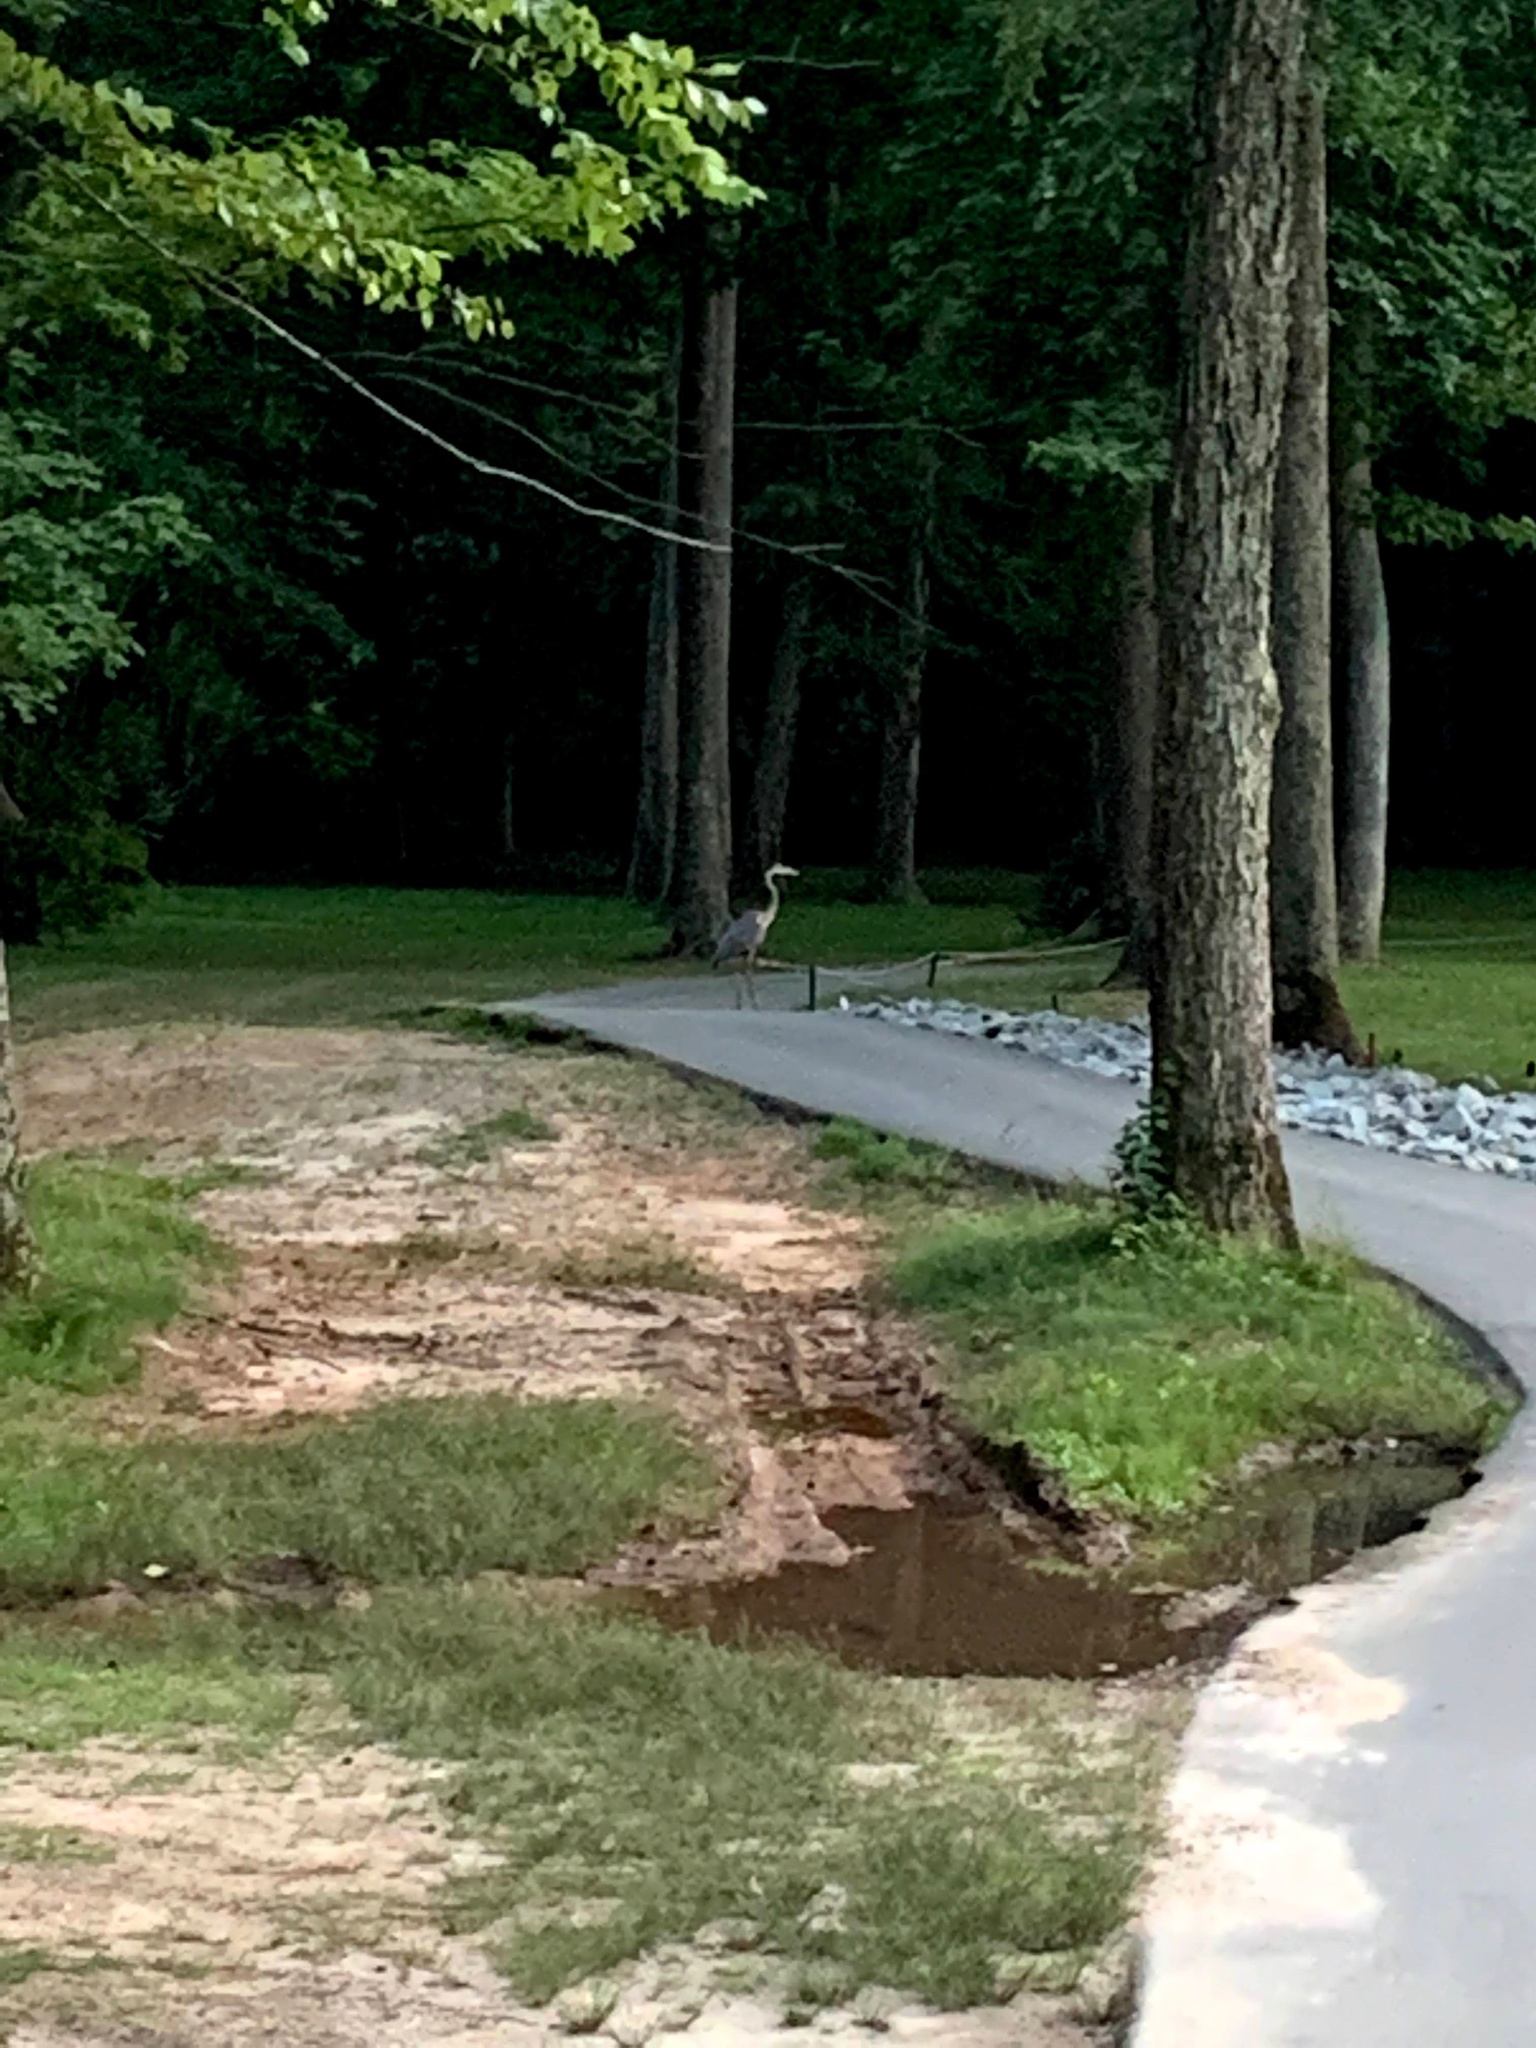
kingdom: Animalia
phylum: Chordata
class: Aves
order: Pelecaniformes
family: Ardeidae
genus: Ardea
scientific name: Ardea herodias
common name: Great blue heron
